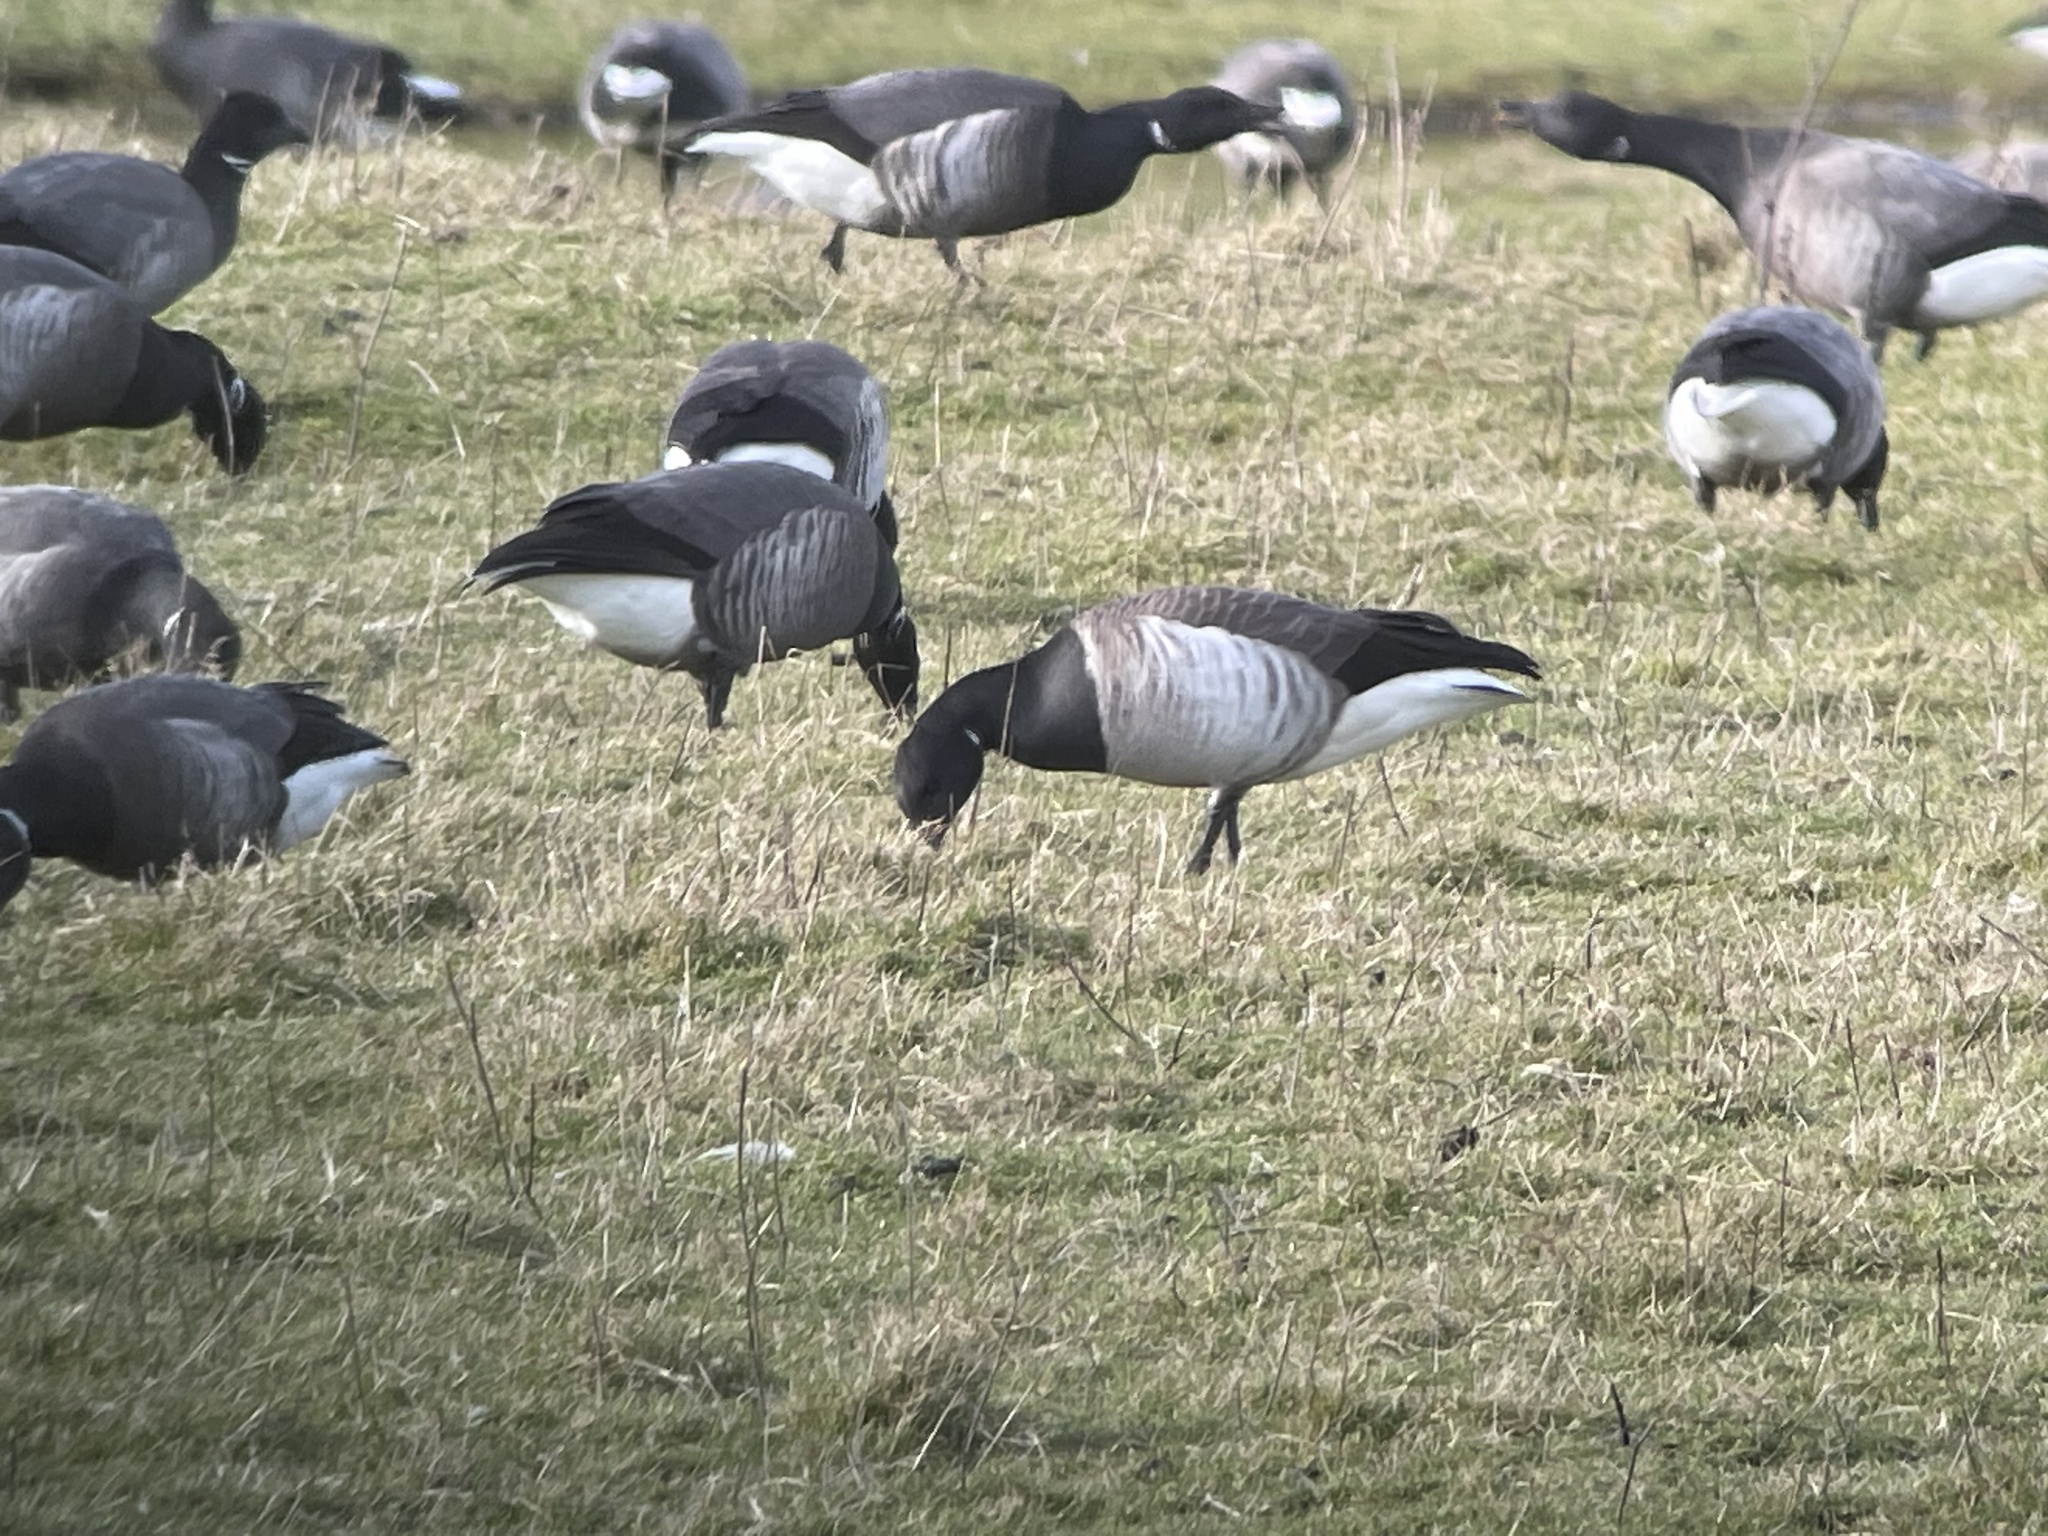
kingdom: Animalia
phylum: Chordata
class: Aves
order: Anseriformes
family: Anatidae
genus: Branta
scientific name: Branta bernicla
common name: Brant goose
